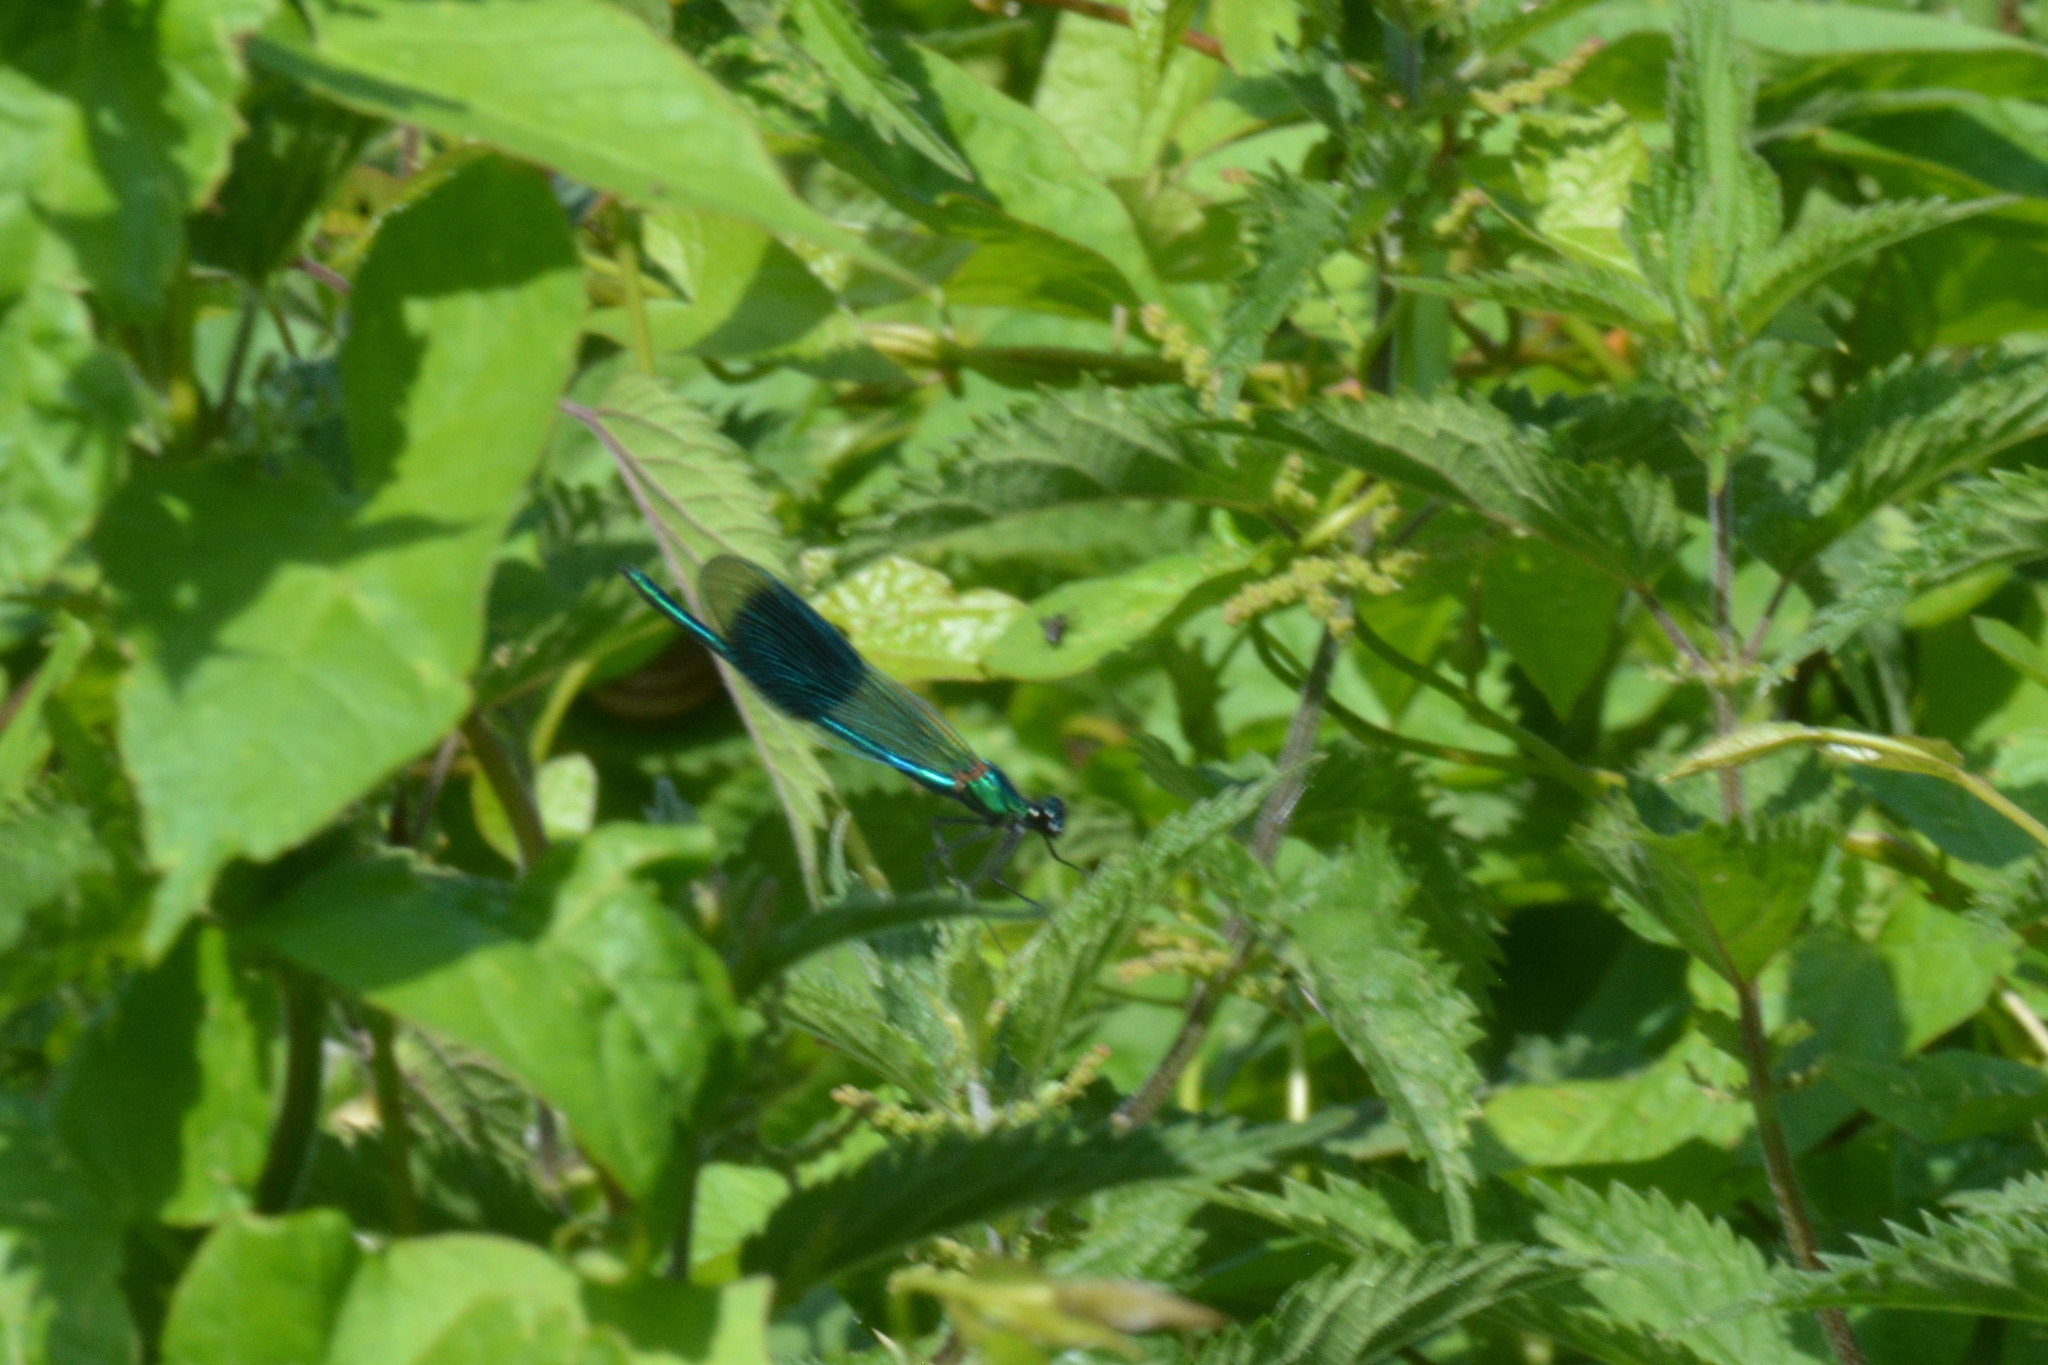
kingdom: Animalia
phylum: Arthropoda
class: Insecta
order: Odonata
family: Calopterygidae
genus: Calopteryx
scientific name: Calopteryx splendens
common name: Banded demoiselle
